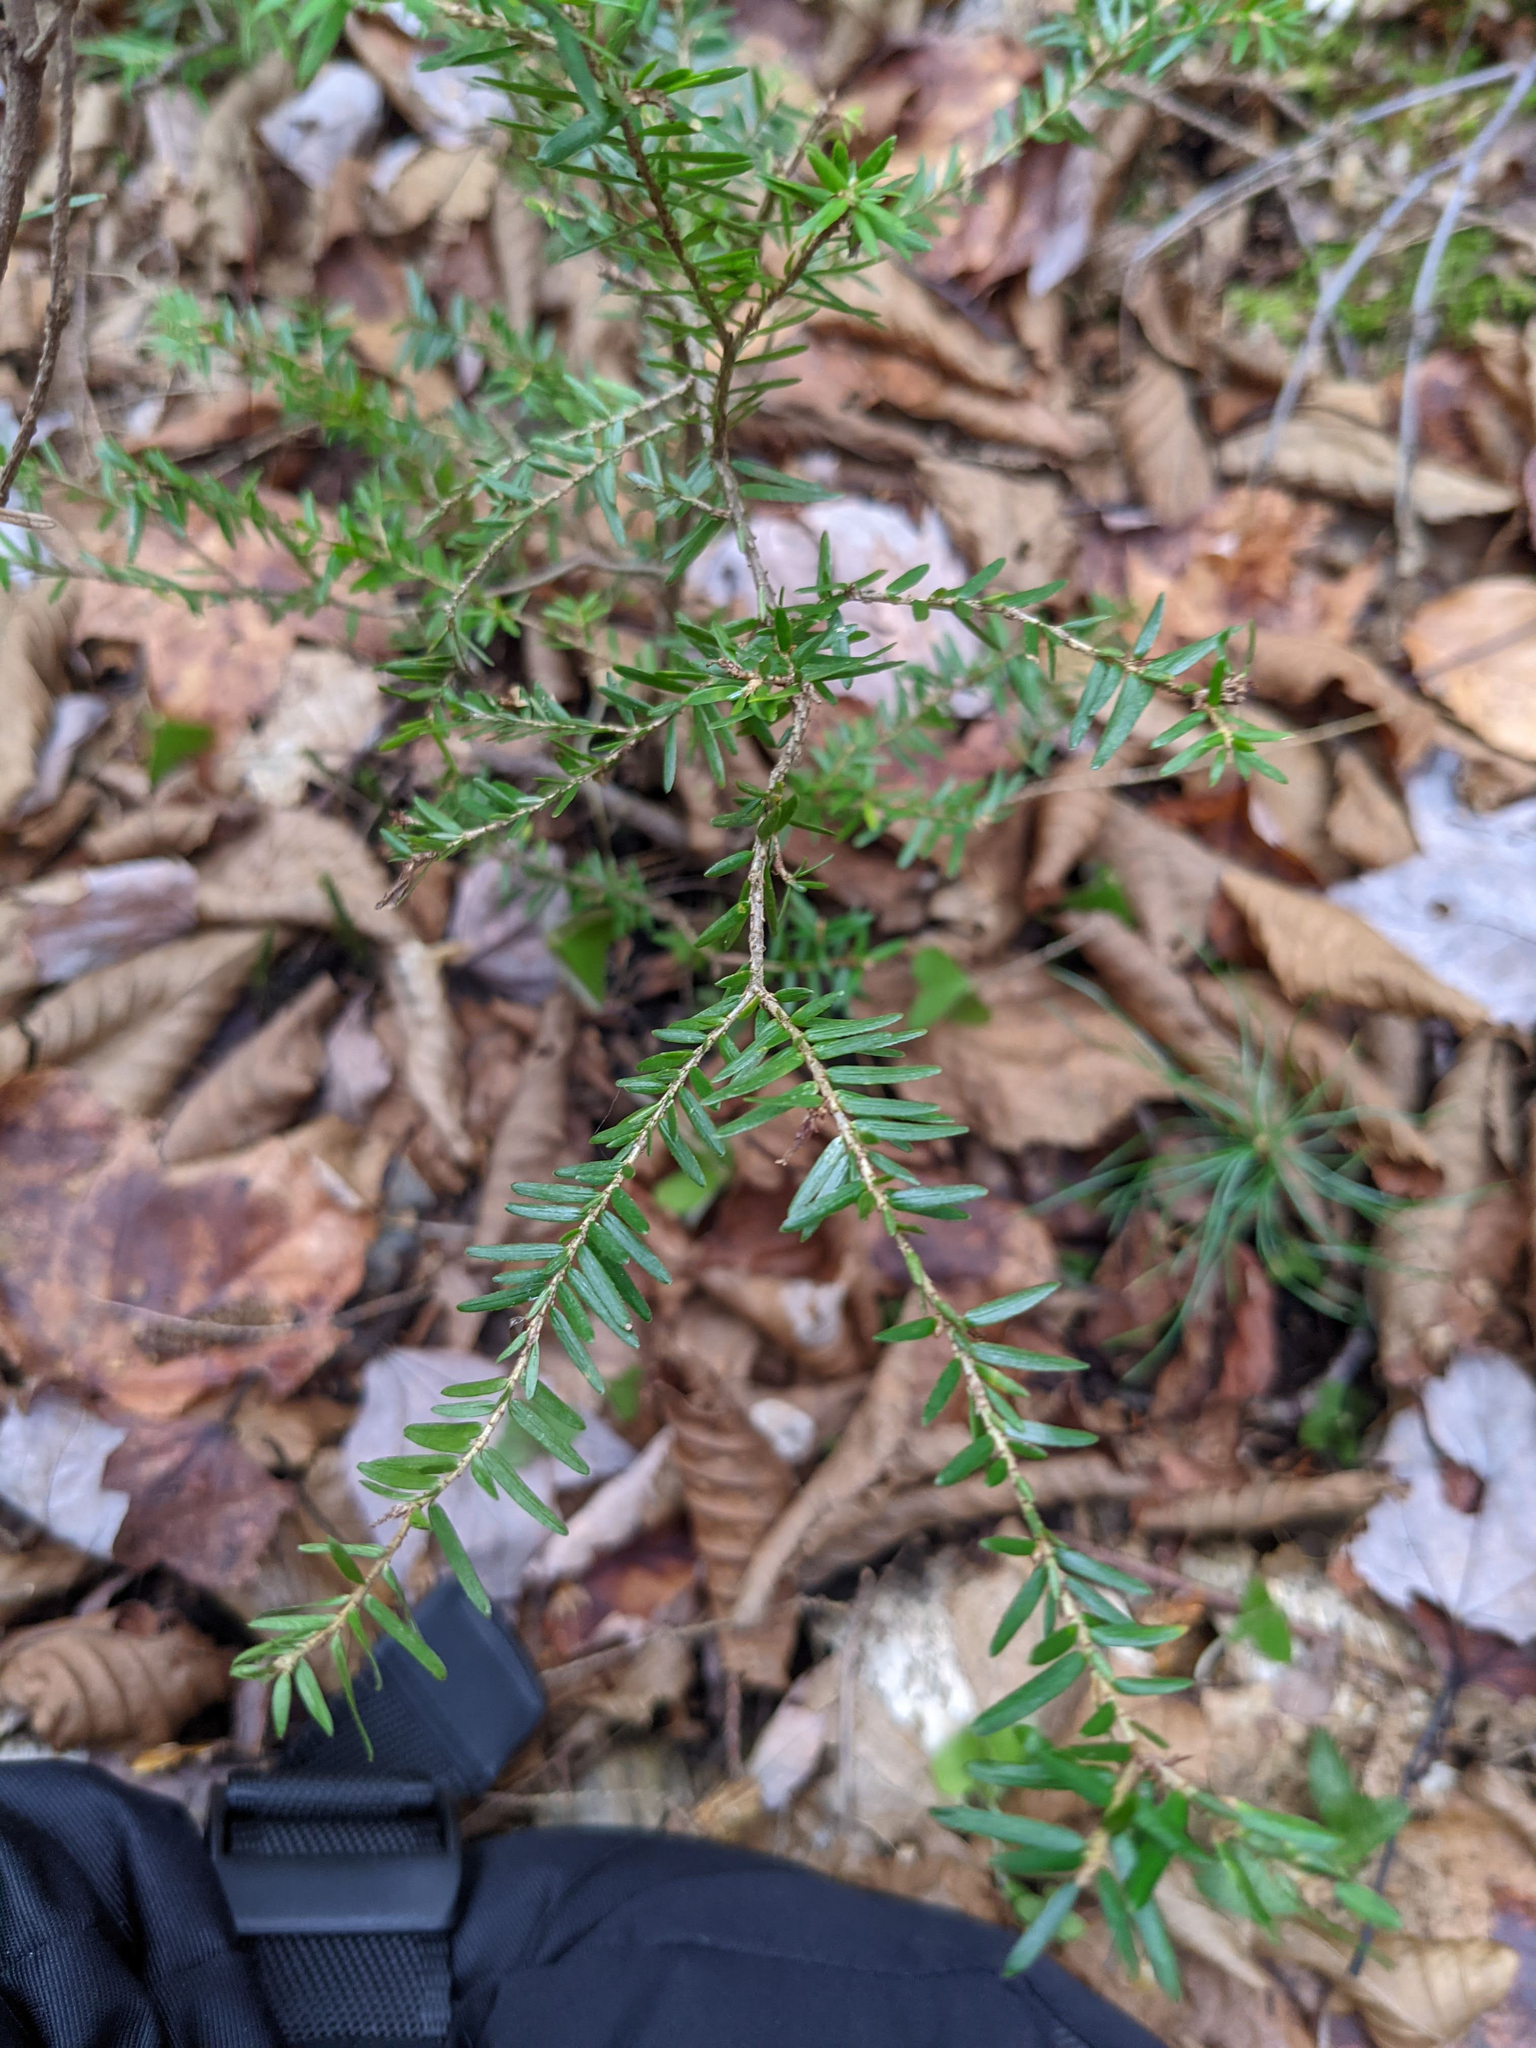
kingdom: Plantae
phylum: Tracheophyta
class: Pinopsida
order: Pinales
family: Pinaceae
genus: Tsuga
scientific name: Tsuga canadensis
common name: Eastern hemlock
